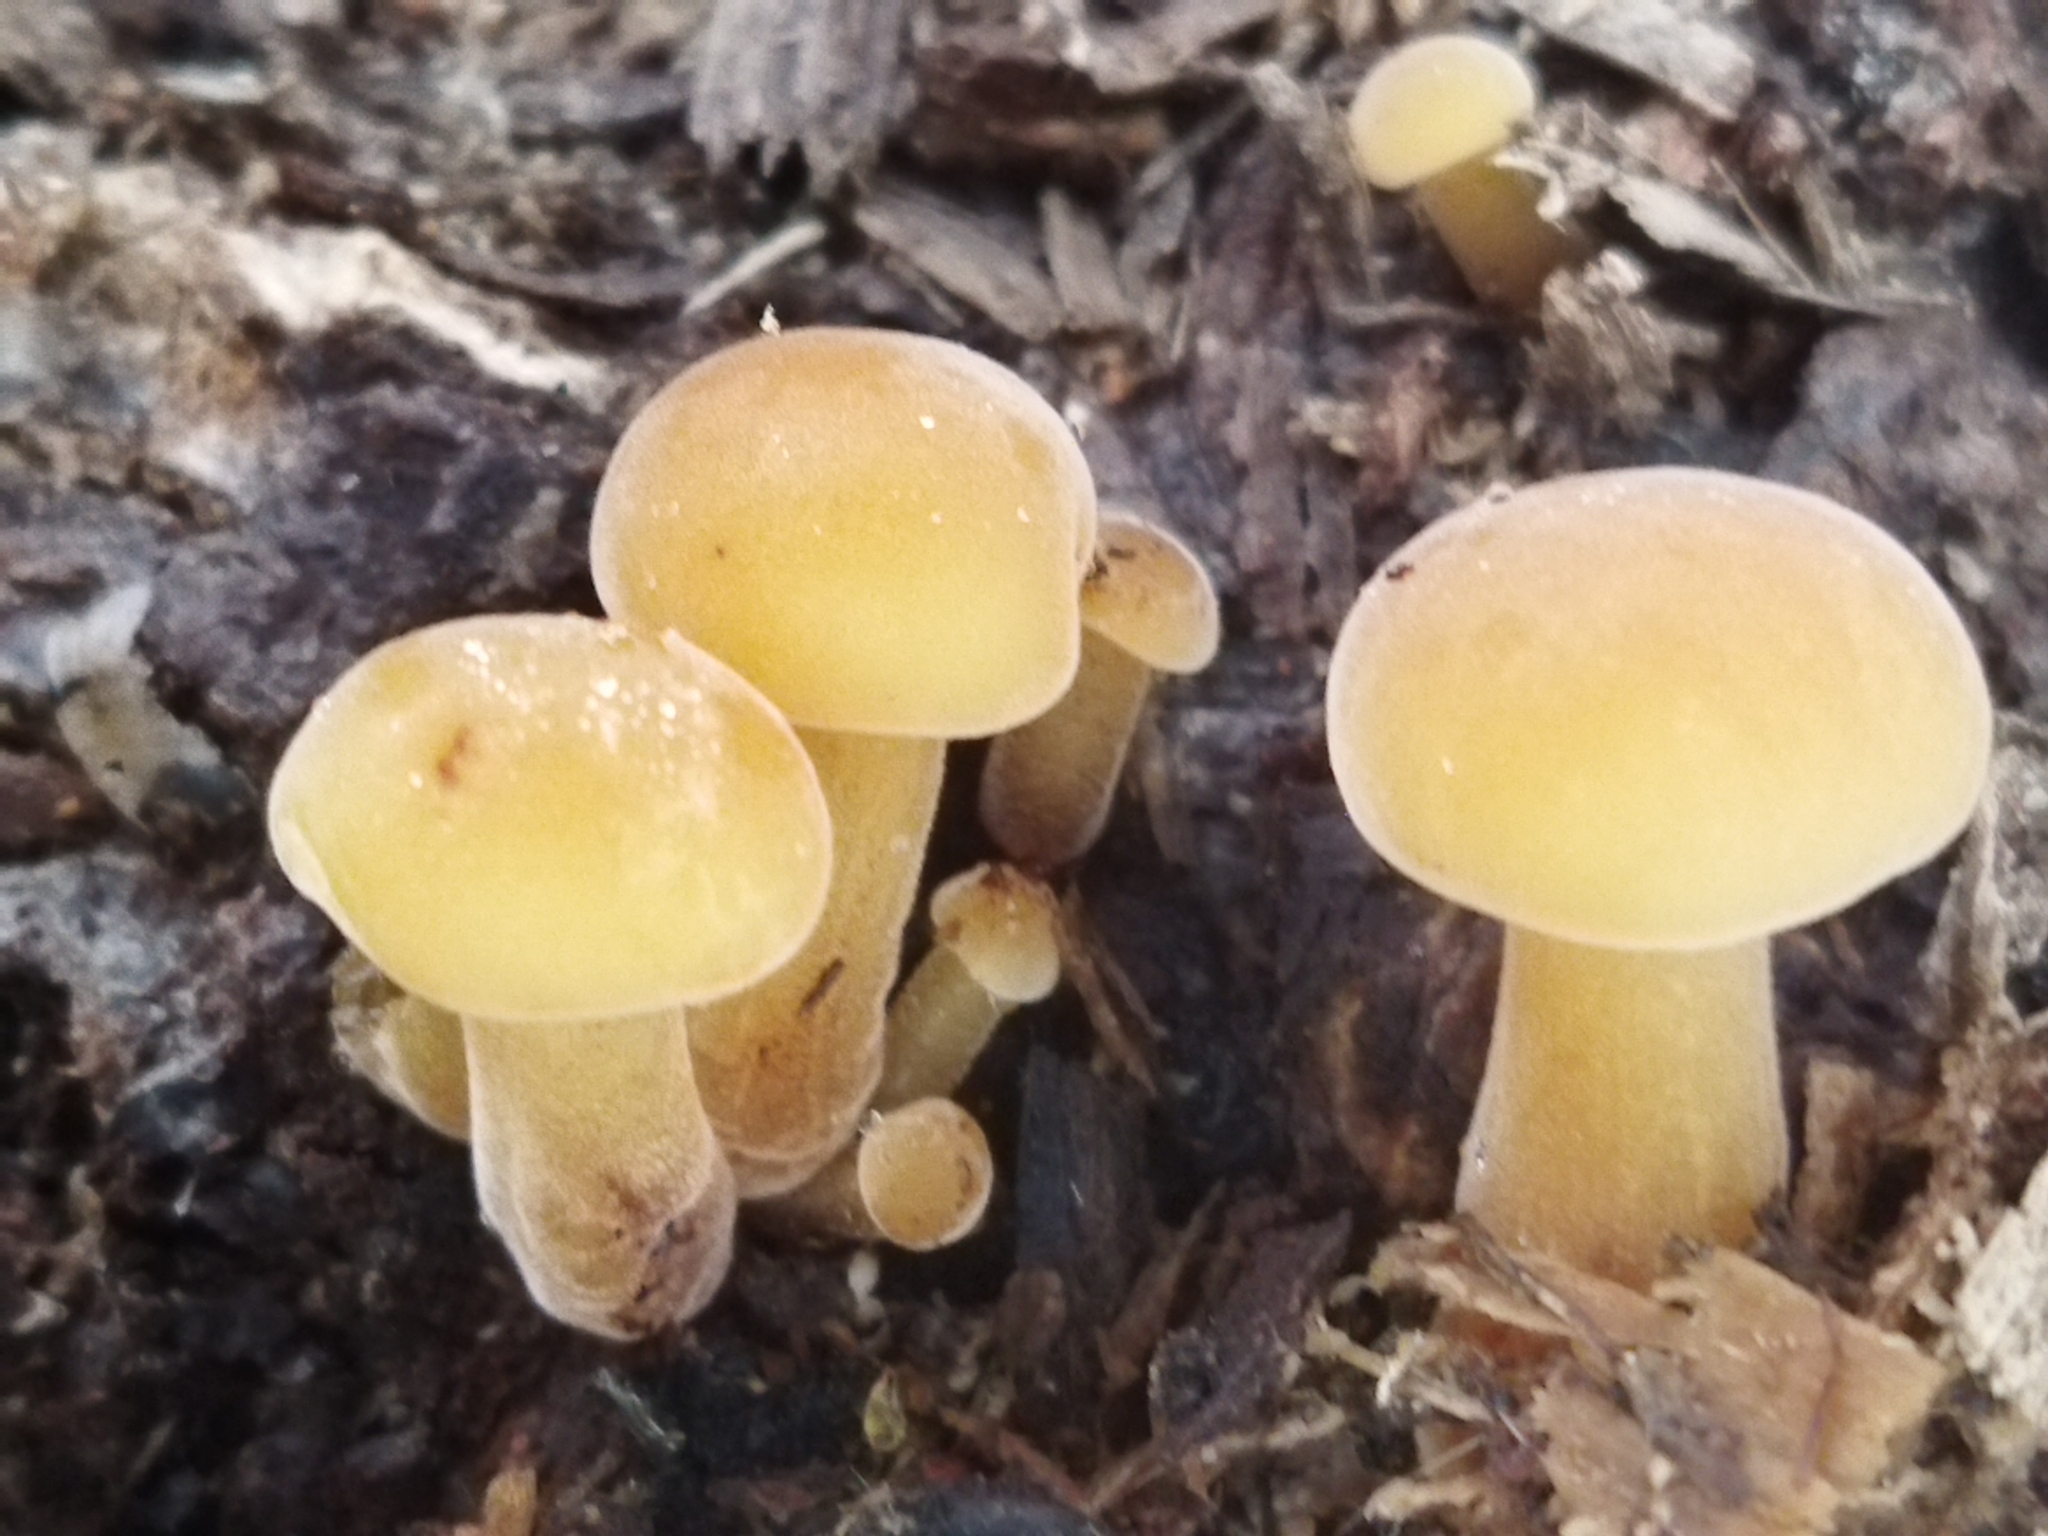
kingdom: Fungi
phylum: Basidiomycota
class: Agaricomycetes
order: Agaricales
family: Physalacriaceae
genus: Flammulina
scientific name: Flammulina
